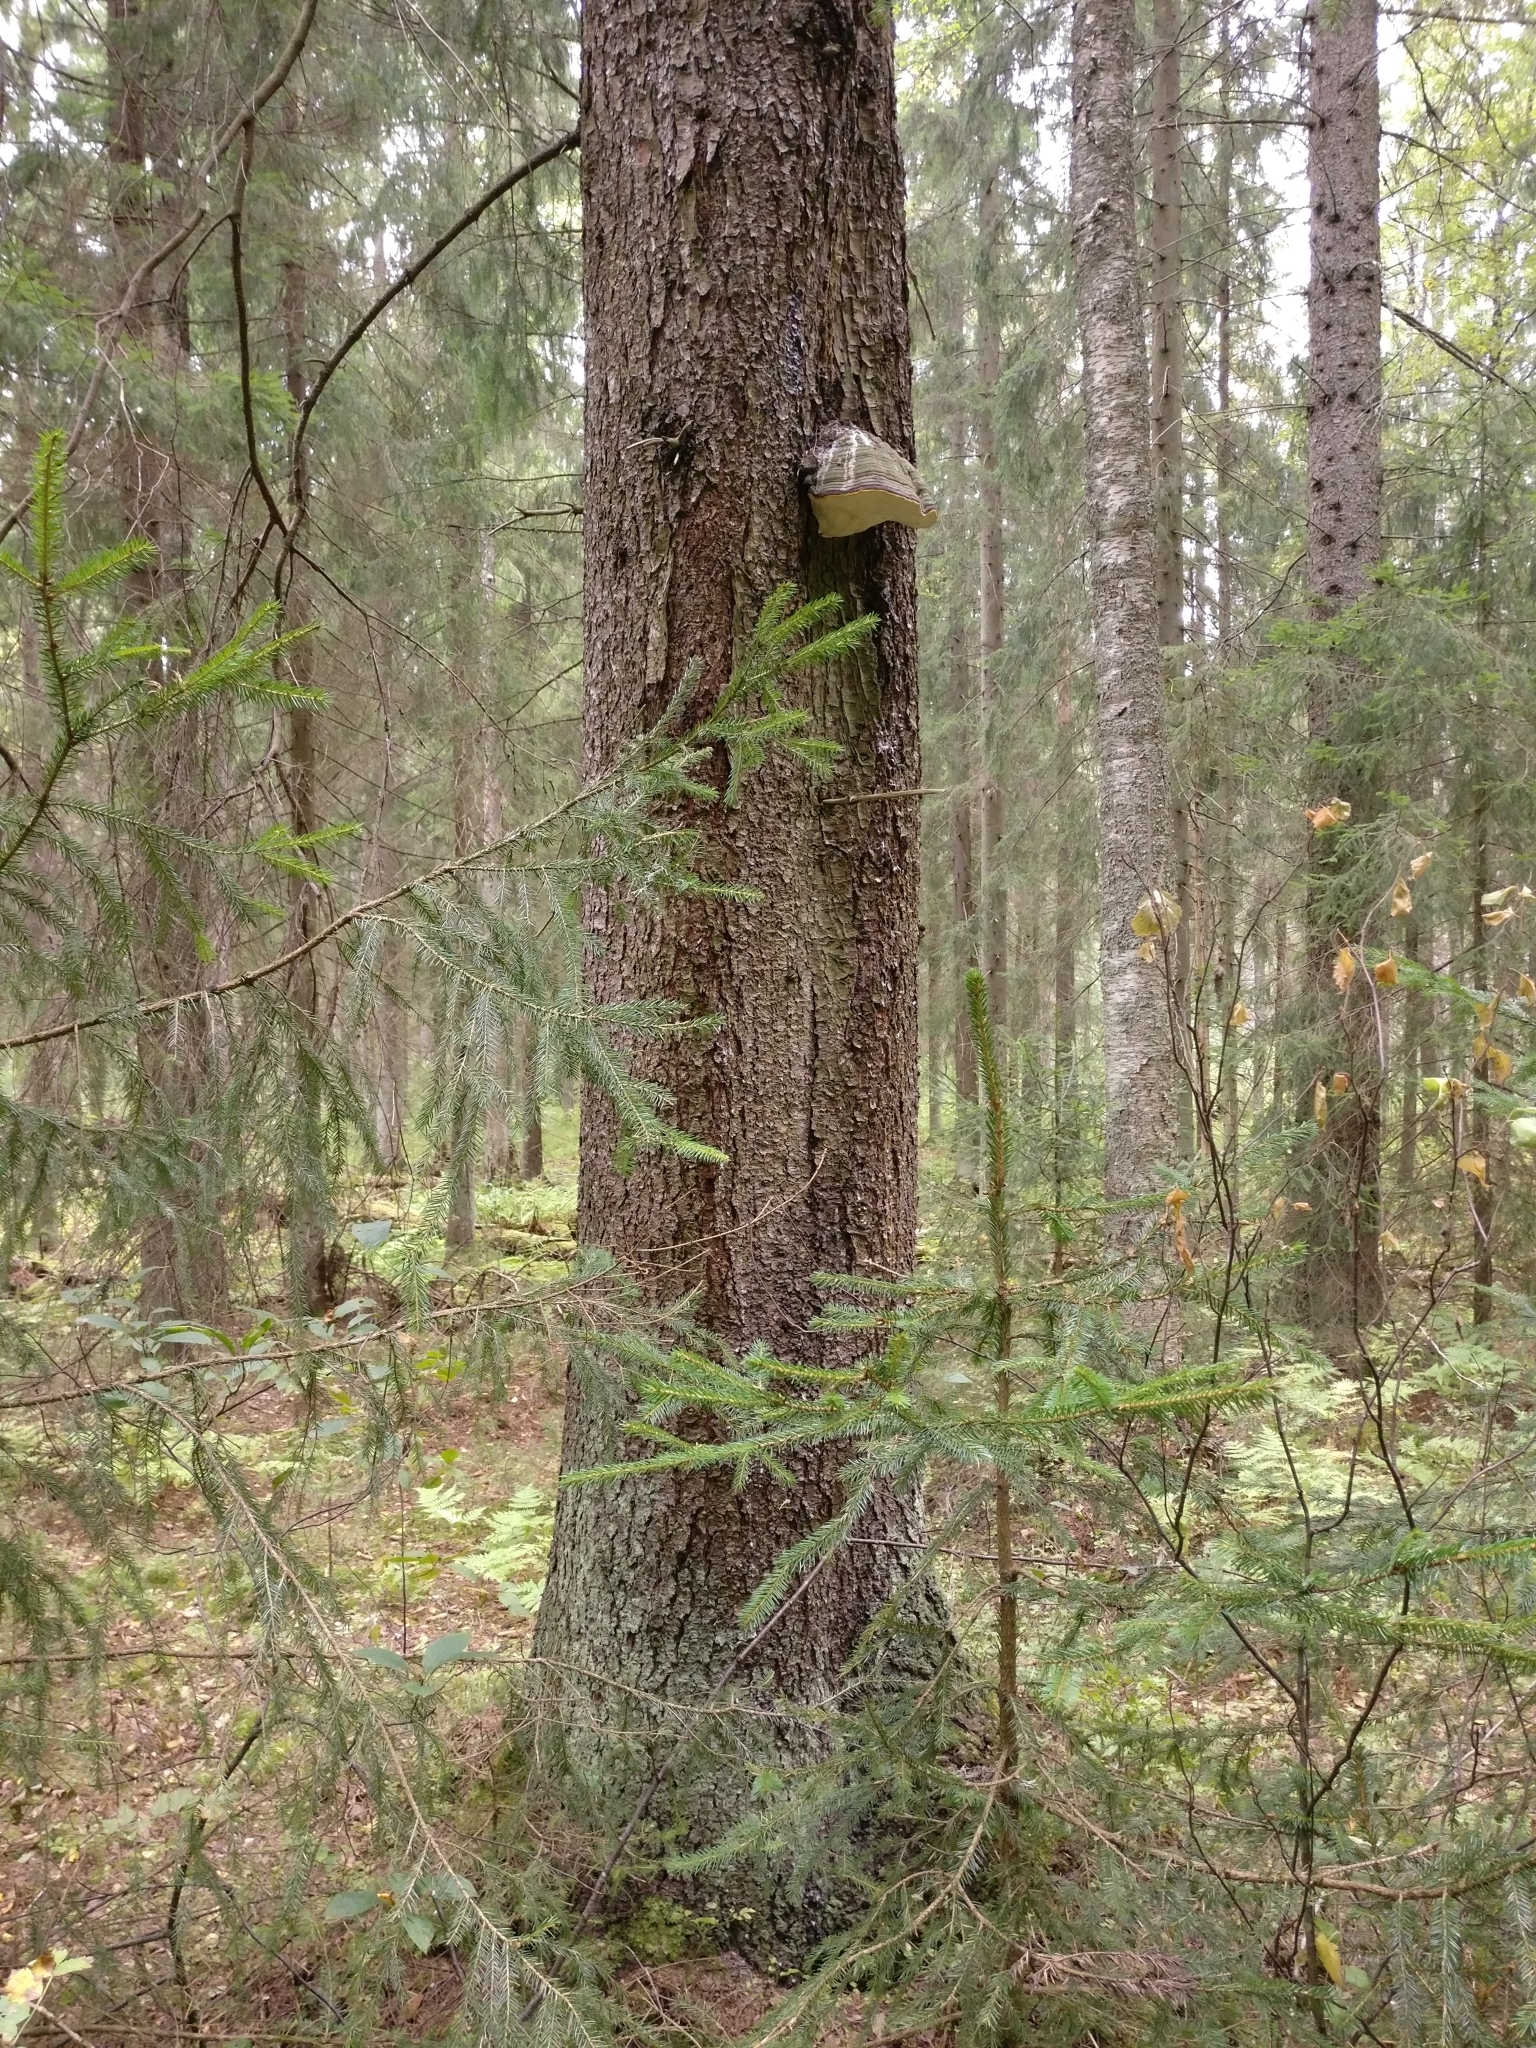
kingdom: Fungi
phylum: Basidiomycota
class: Agaricomycetes
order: Polyporales
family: Fomitopsidaceae
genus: Fomitopsis
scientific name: Fomitopsis pinicola
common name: Red-belted bracket
